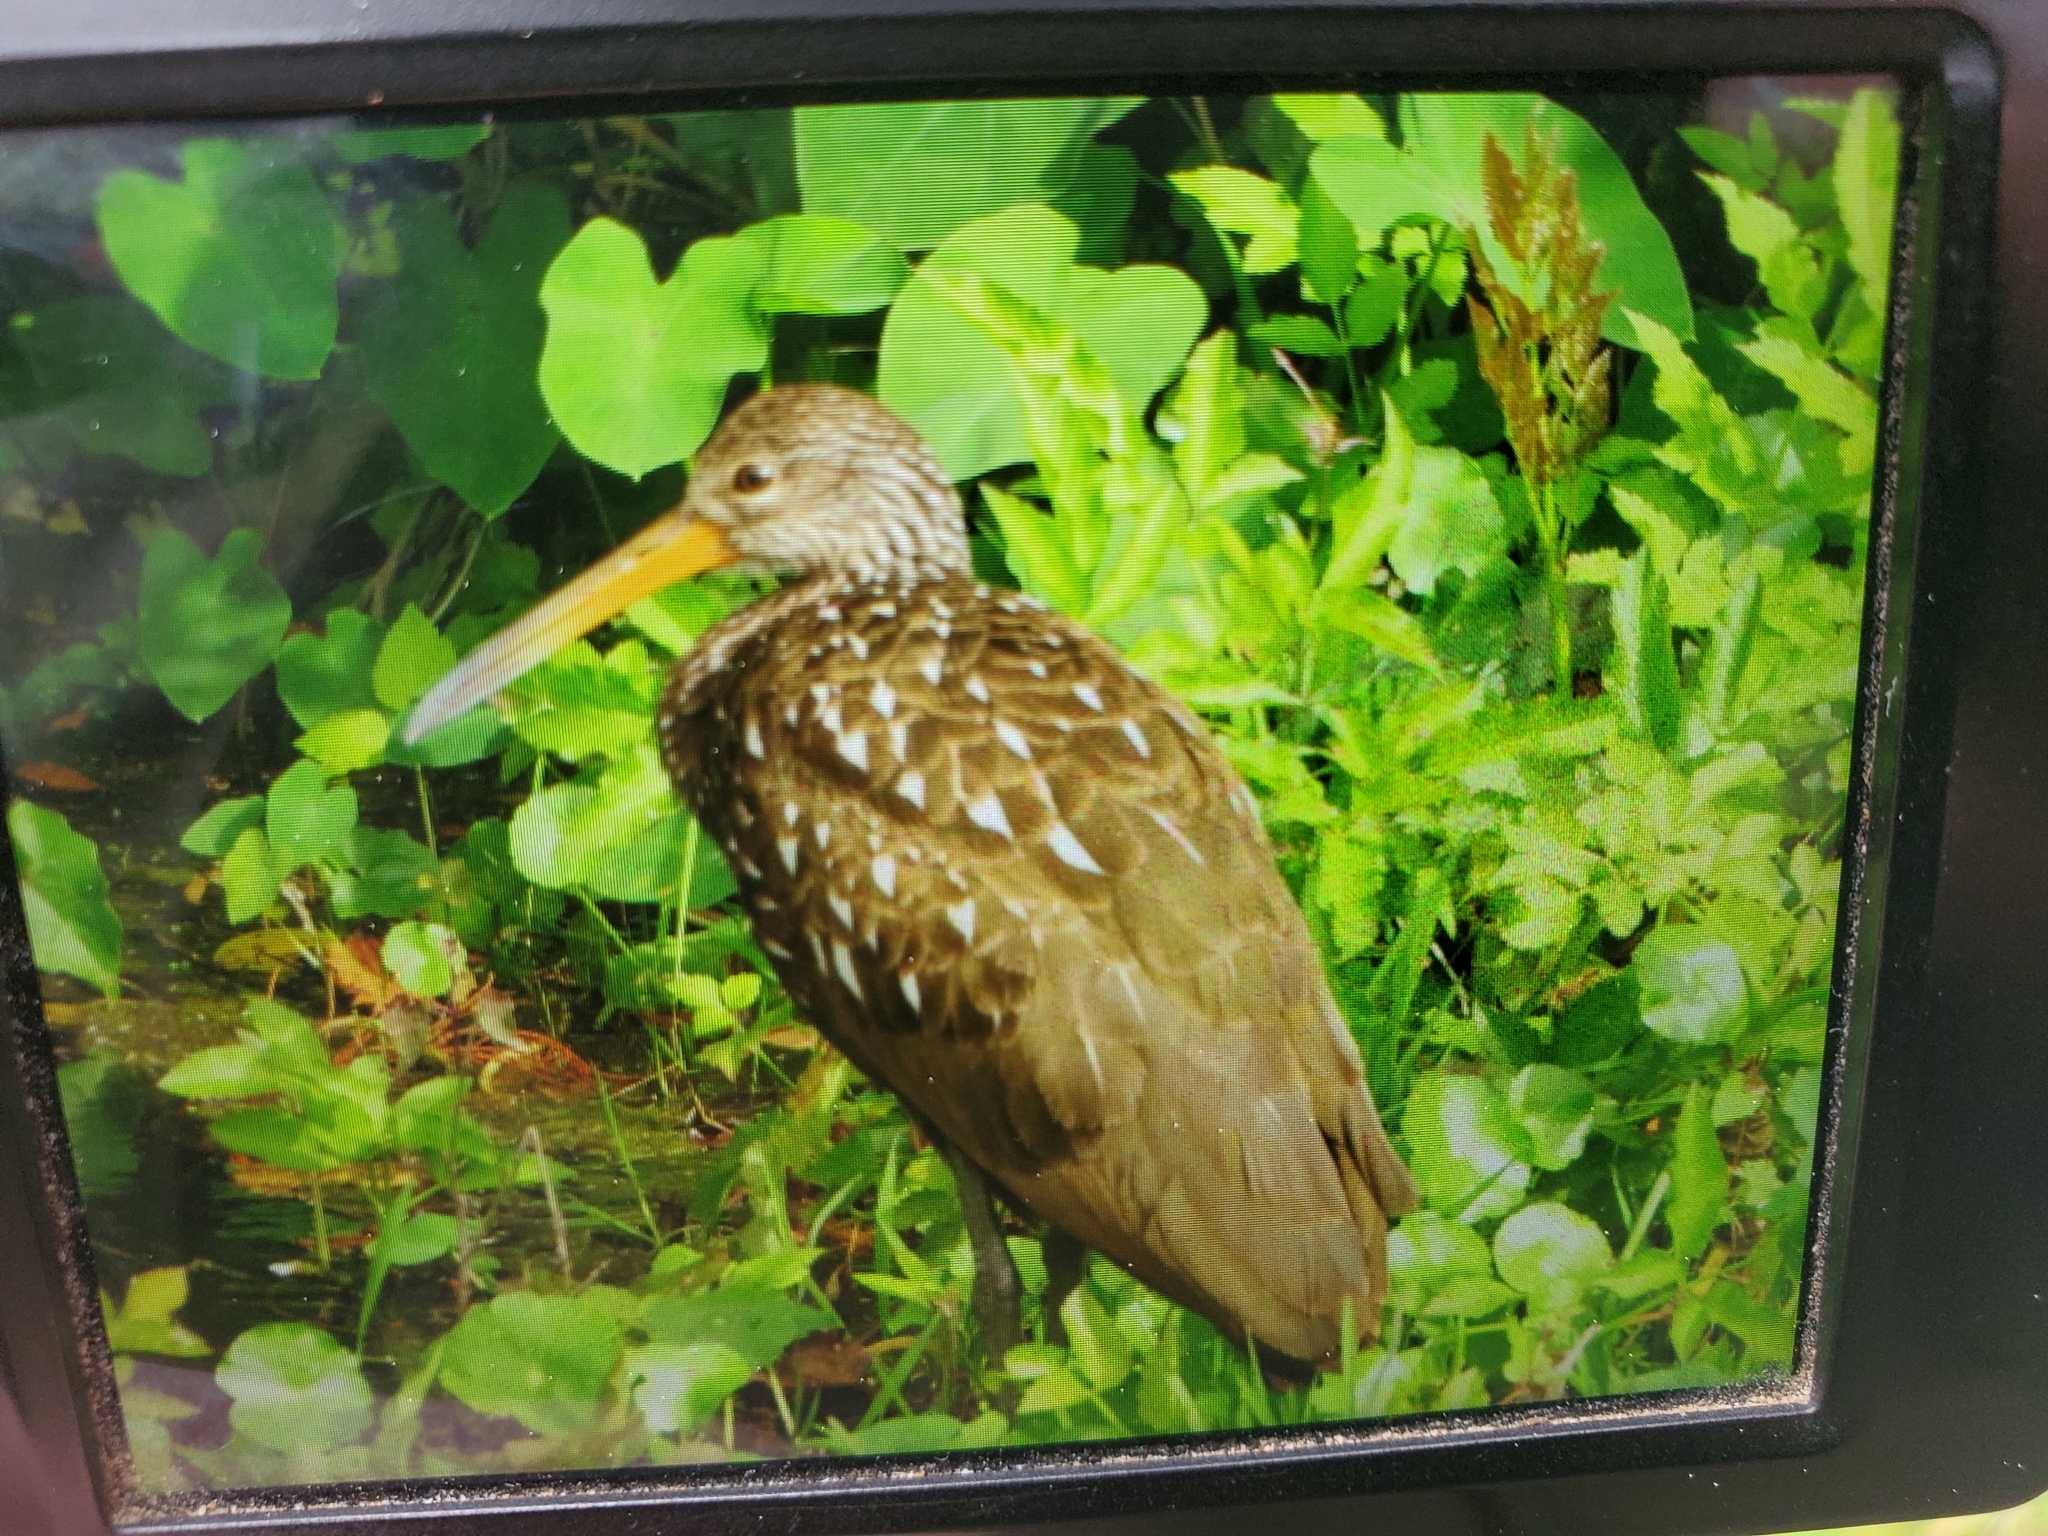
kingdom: Animalia
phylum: Chordata
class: Aves
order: Gruiformes
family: Aramidae
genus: Aramus
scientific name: Aramus guarauna
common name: Limpkin
